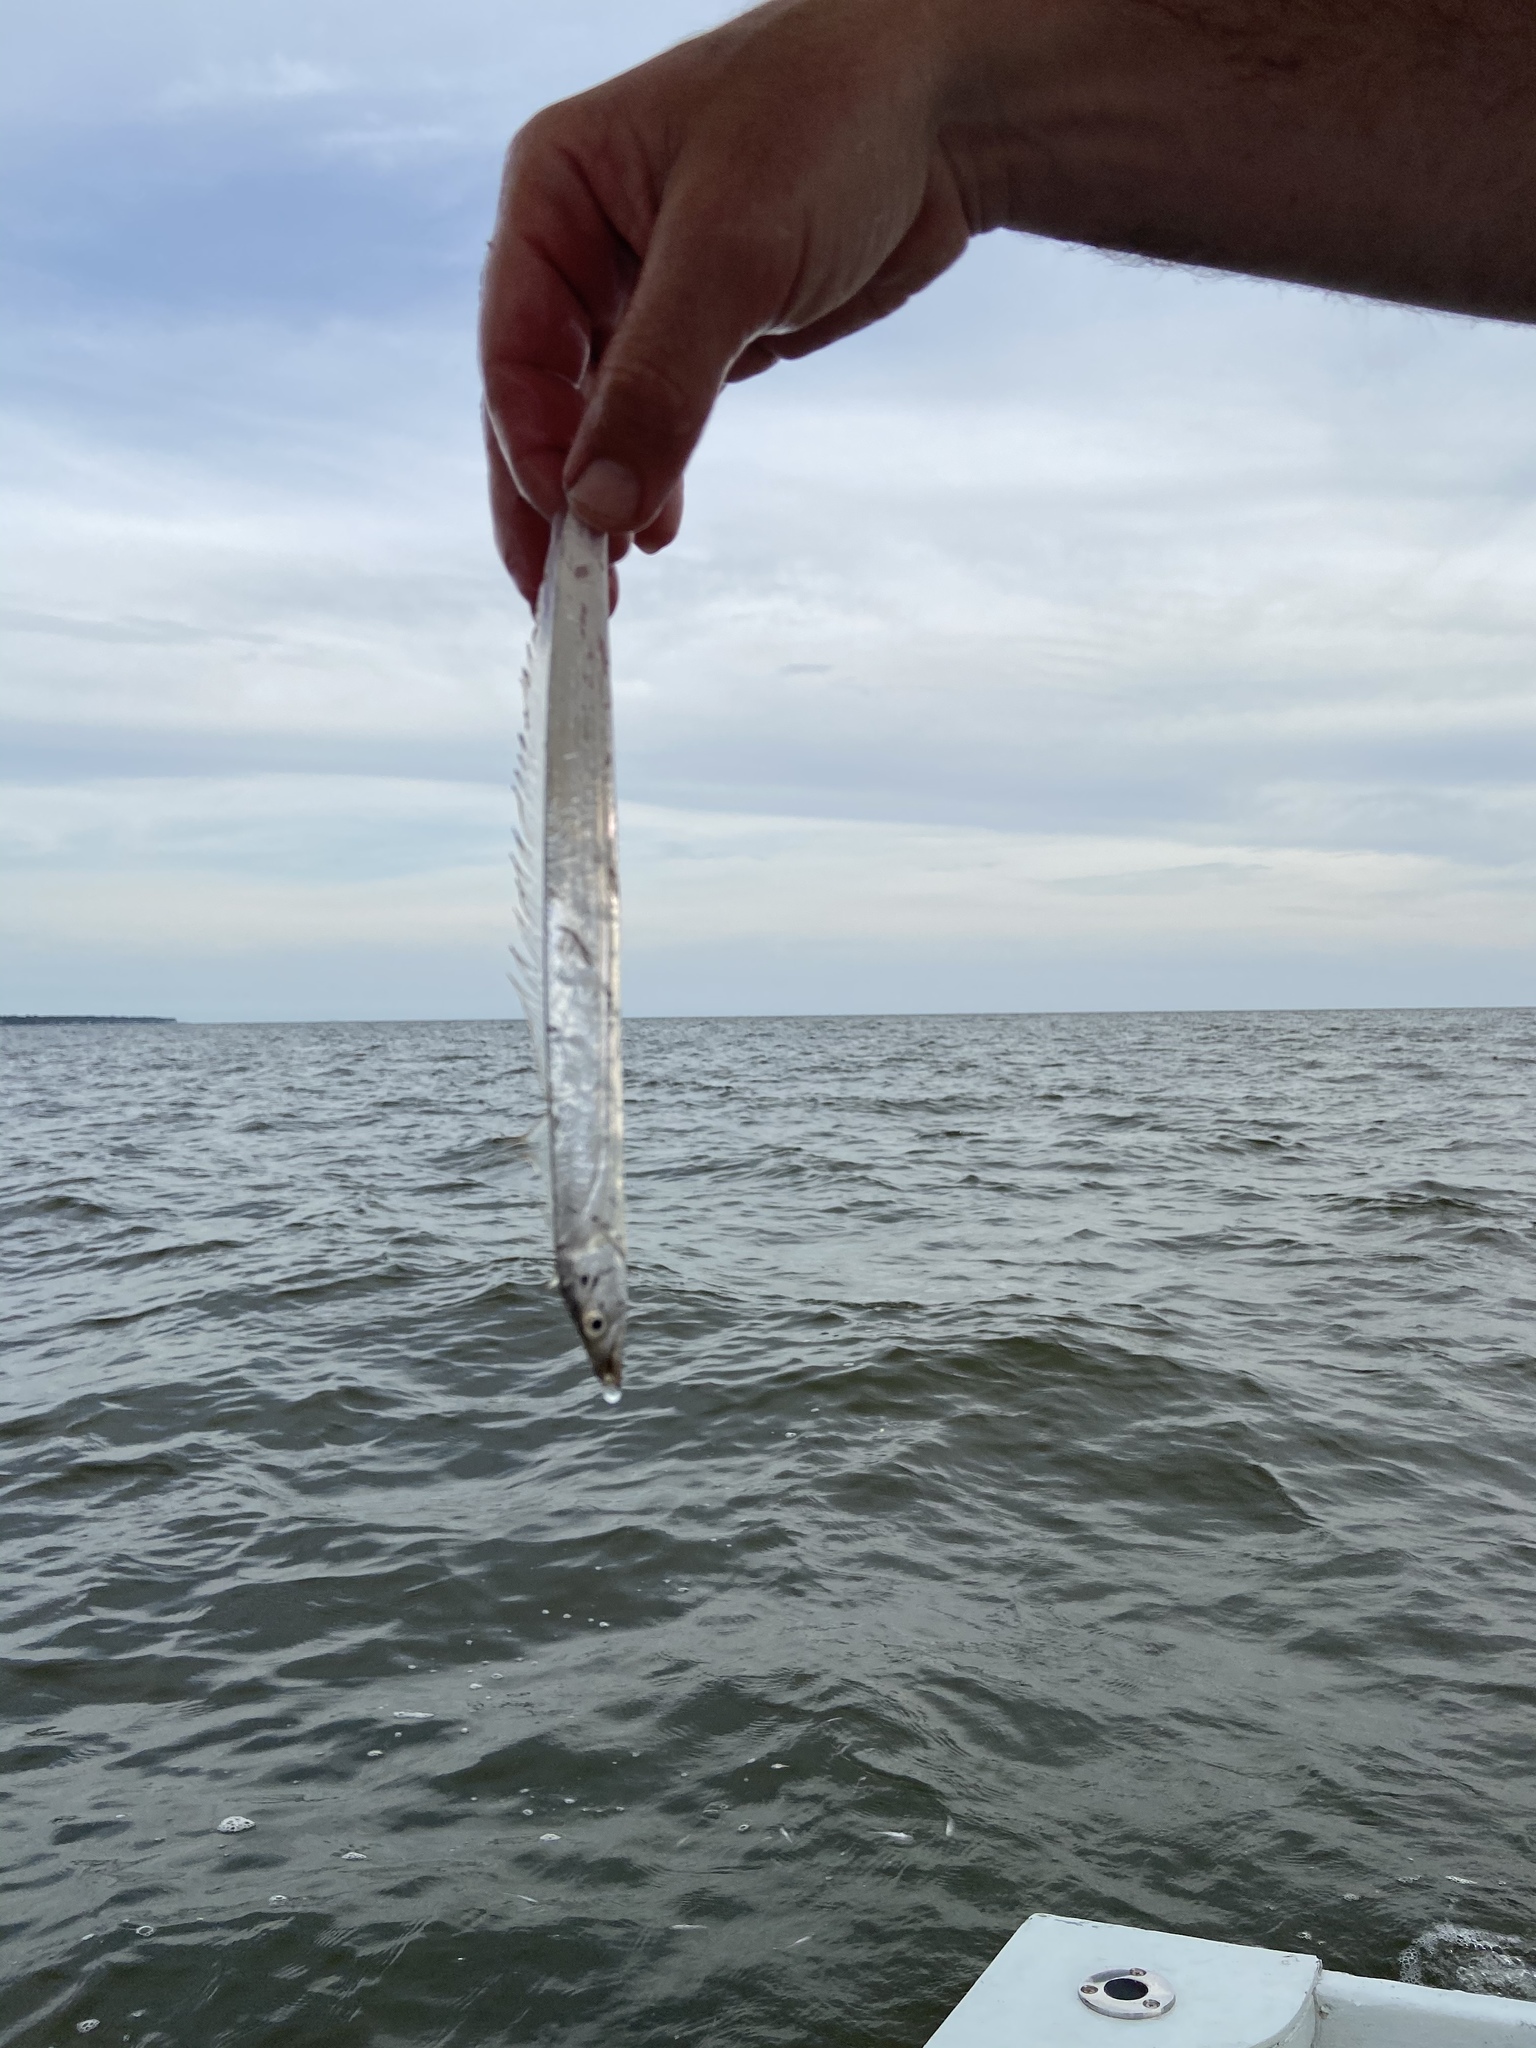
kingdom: Animalia
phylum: Chordata
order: Perciformes
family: Trichiuridae
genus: Trichiurus
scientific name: Trichiurus lepturus
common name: Largehead hairtail
